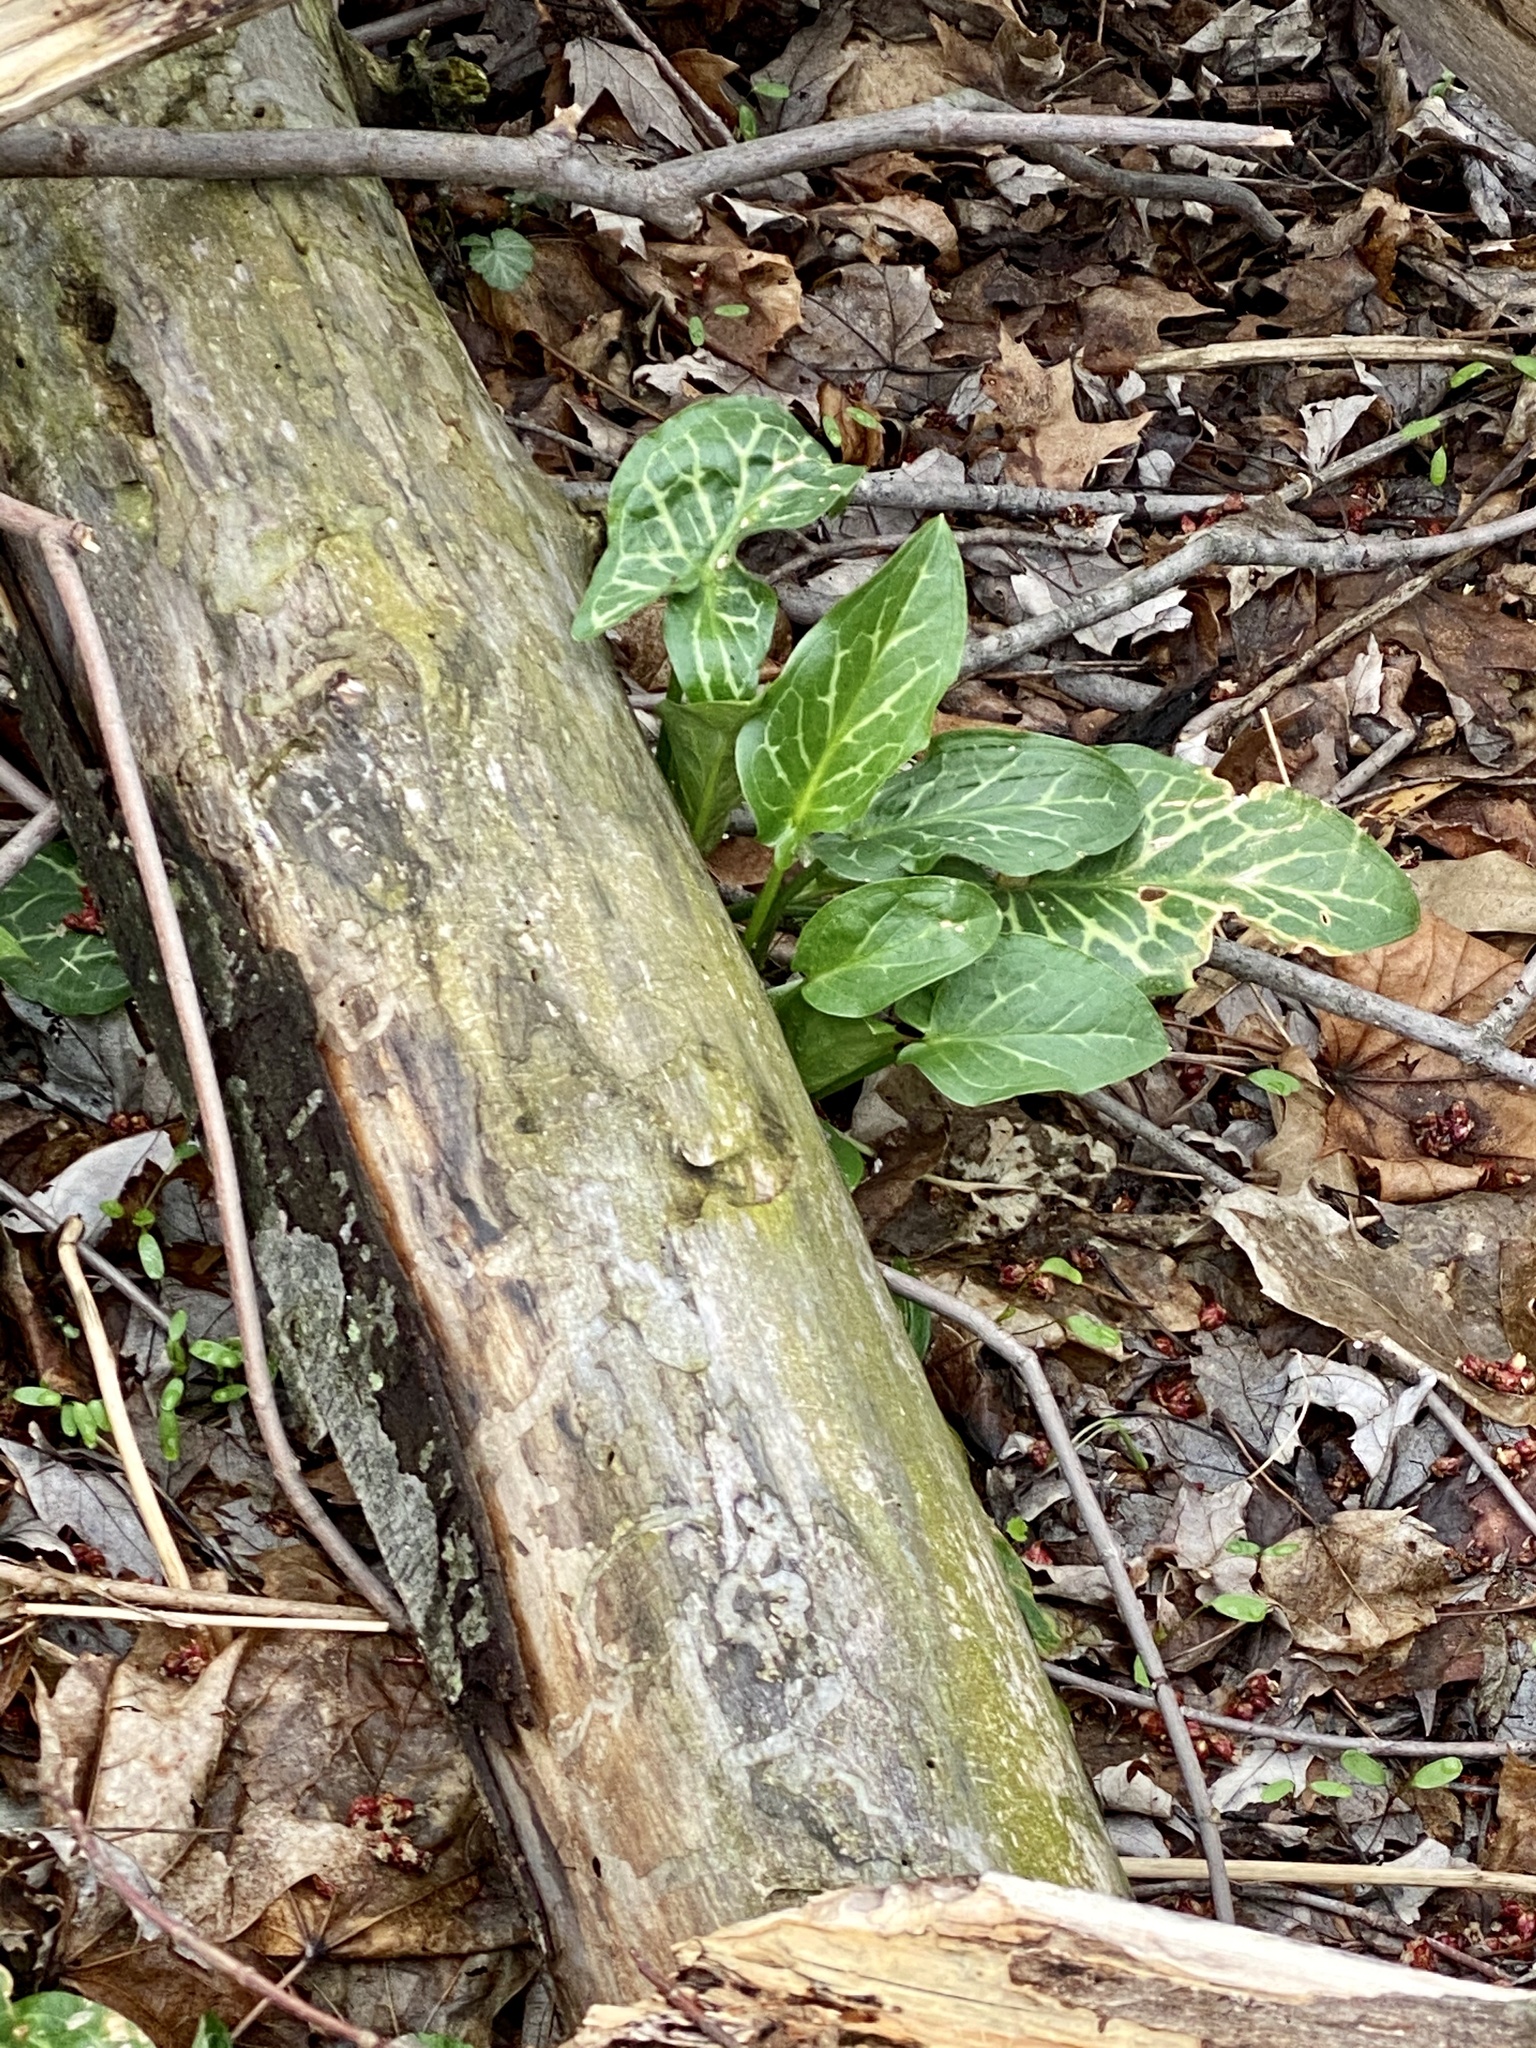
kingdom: Plantae
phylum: Tracheophyta
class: Liliopsida
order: Alismatales
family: Araceae
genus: Arum
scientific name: Arum italicum
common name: Italian lords-and-ladies
